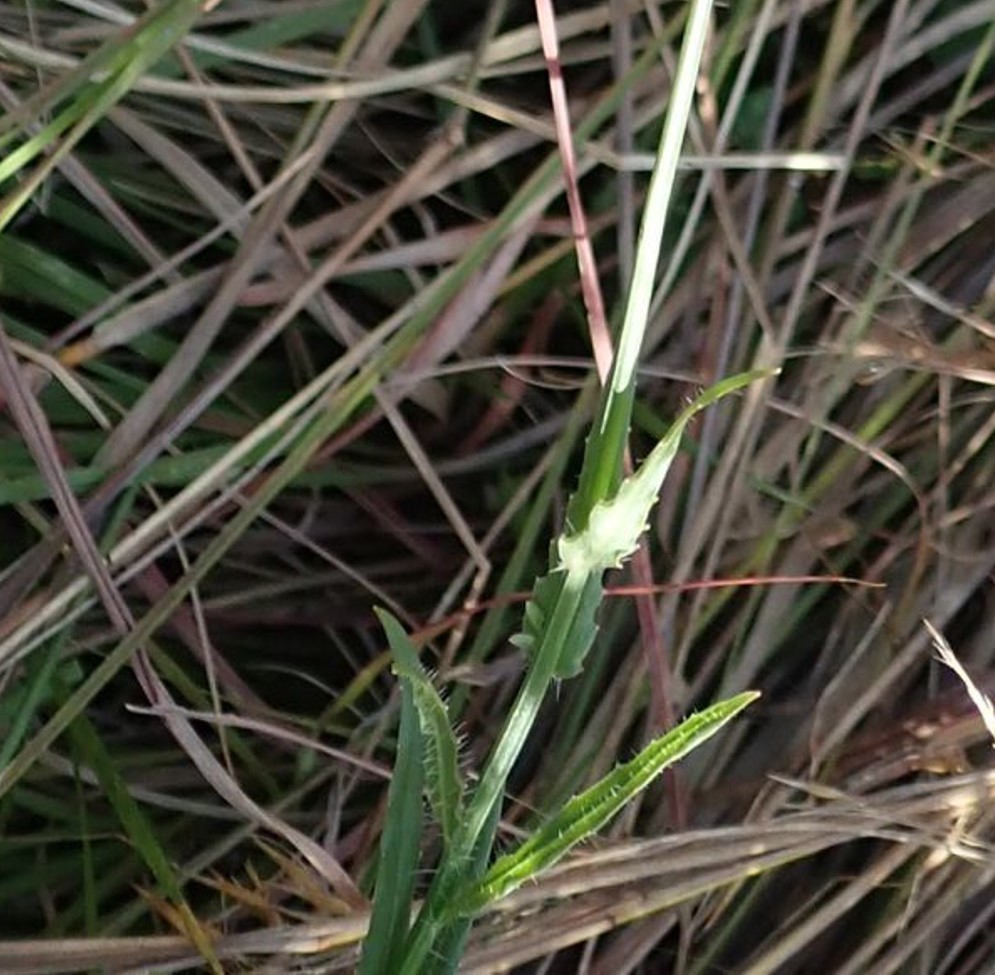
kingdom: Plantae
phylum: Tracheophyta
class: Magnoliopsida
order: Asterales
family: Campanulaceae
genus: Wahlenbergia
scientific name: Wahlenbergia undulata
